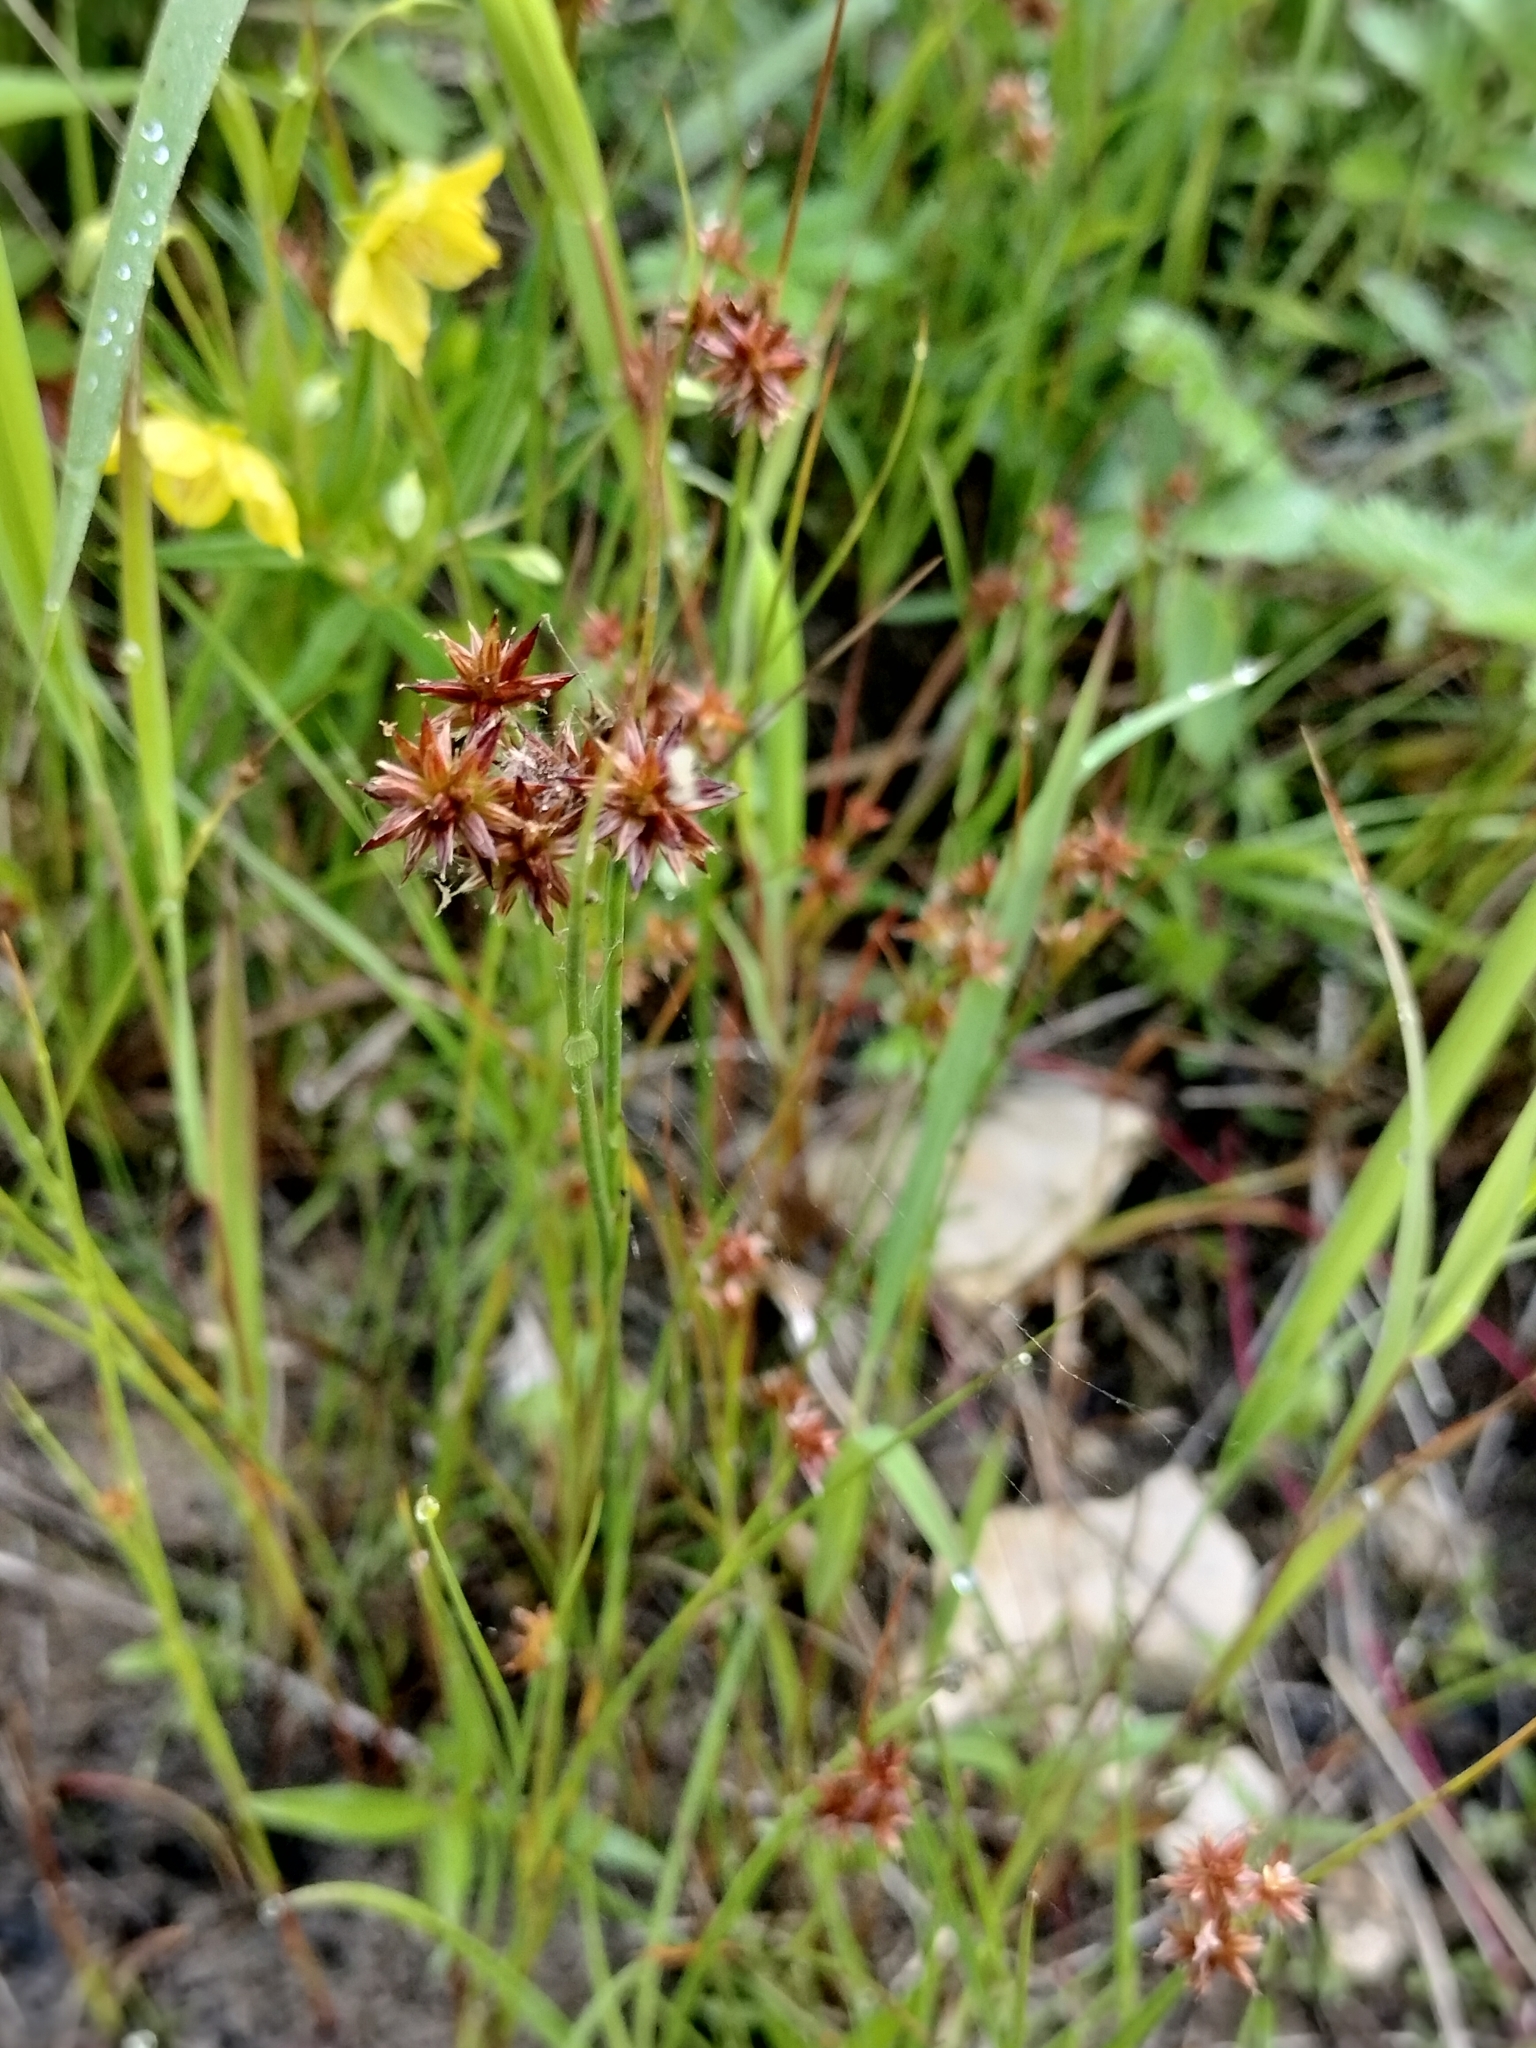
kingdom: Plantae
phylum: Tracheophyta
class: Liliopsida
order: Poales
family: Juncaceae
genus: Juncus
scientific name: Juncus nodosus
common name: Knotted rush
